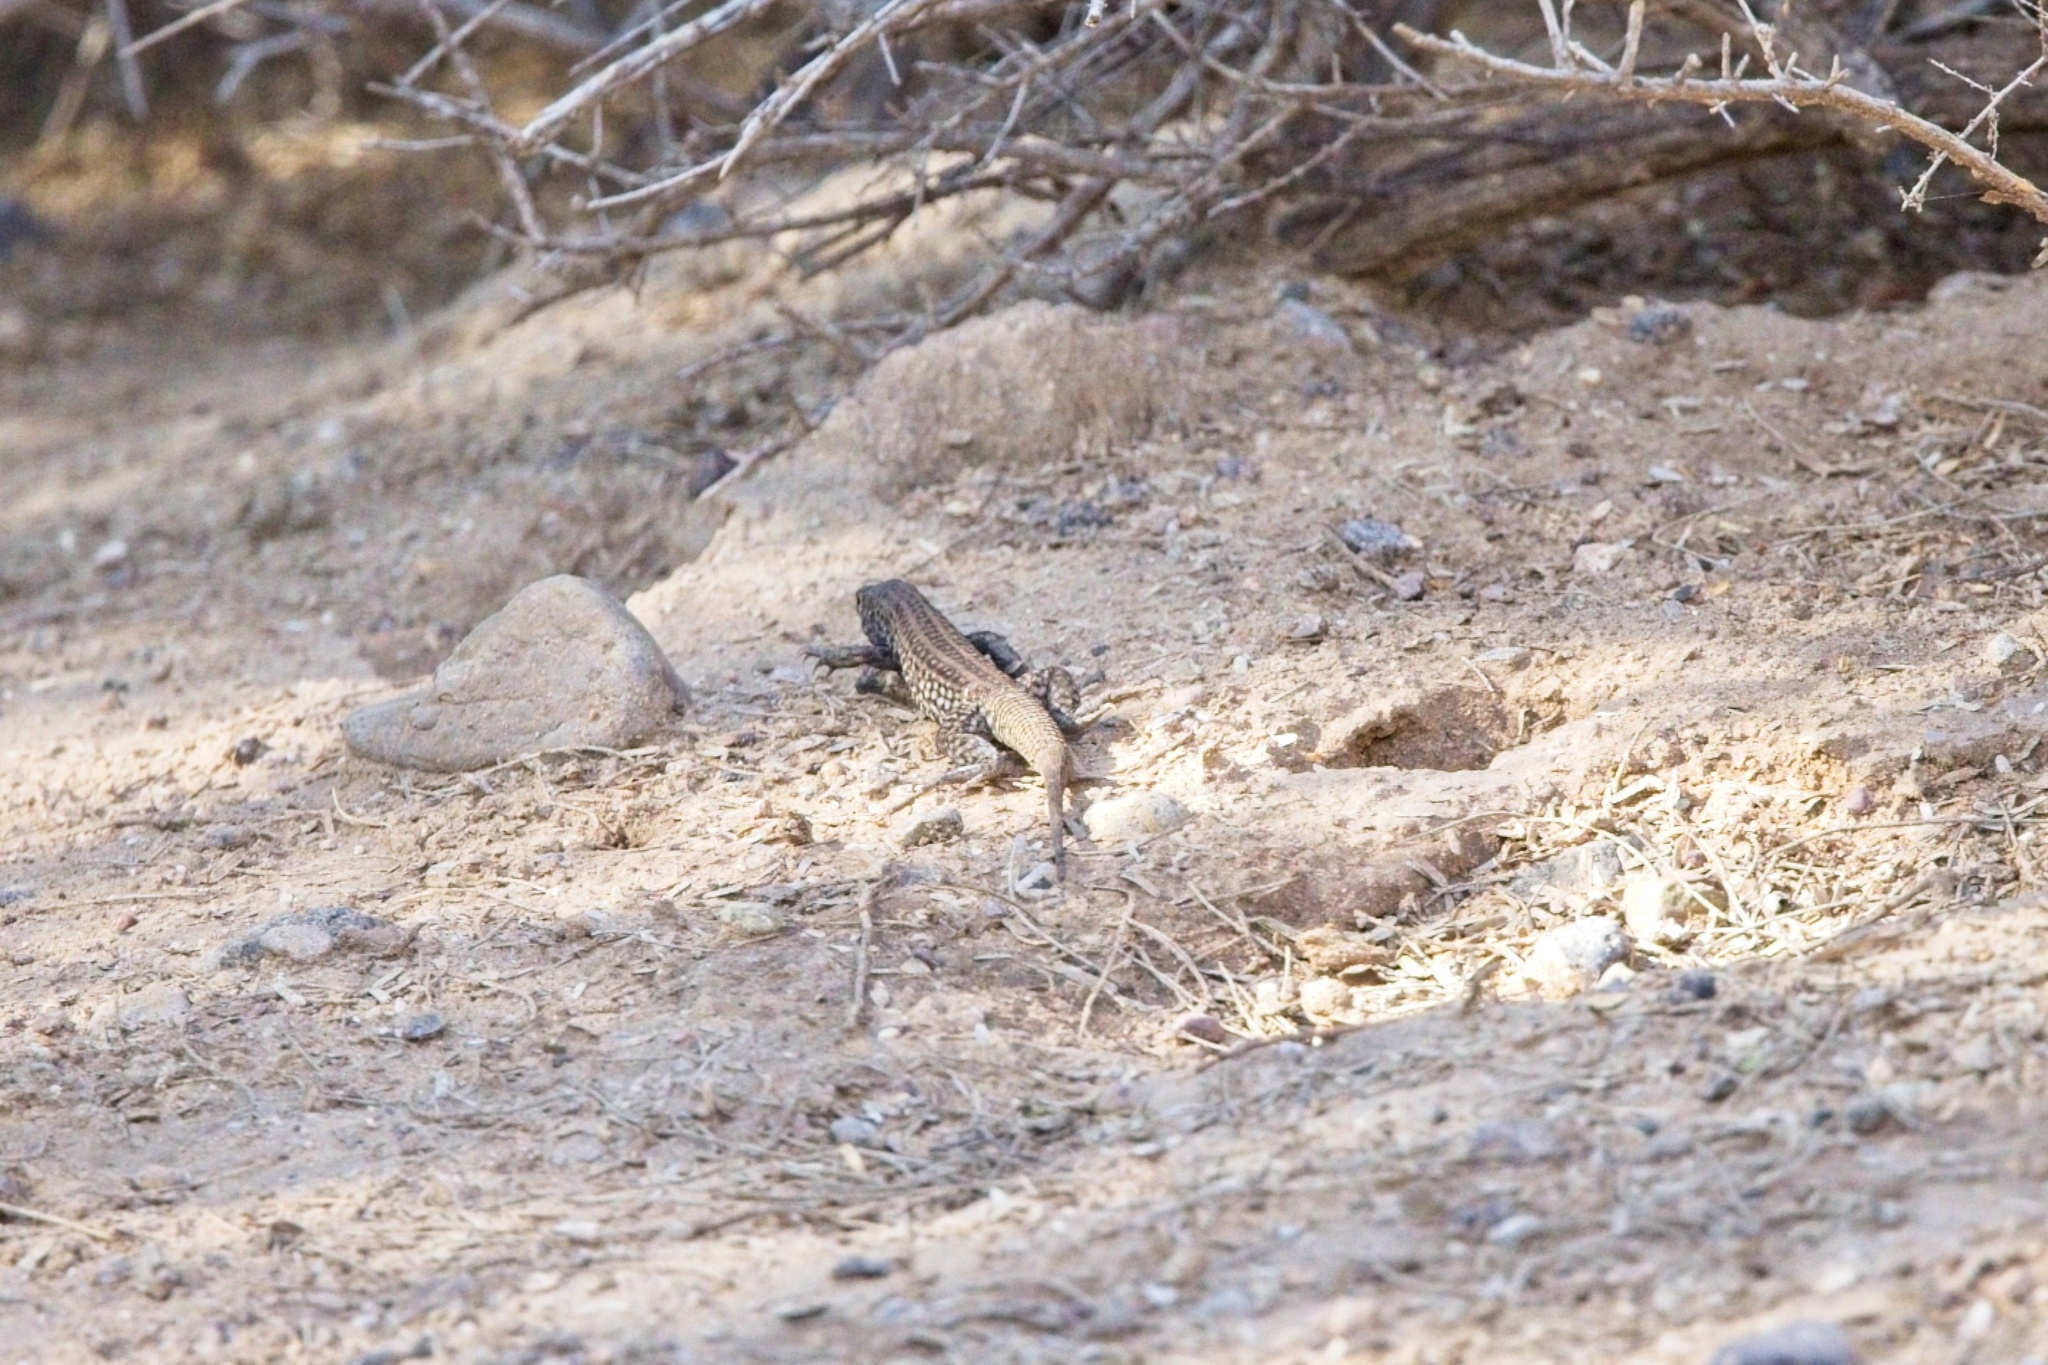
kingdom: Animalia
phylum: Chordata
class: Squamata
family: Teiidae
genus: Aspidoscelis
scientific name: Aspidoscelis tigris
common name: Tiger whiptail
